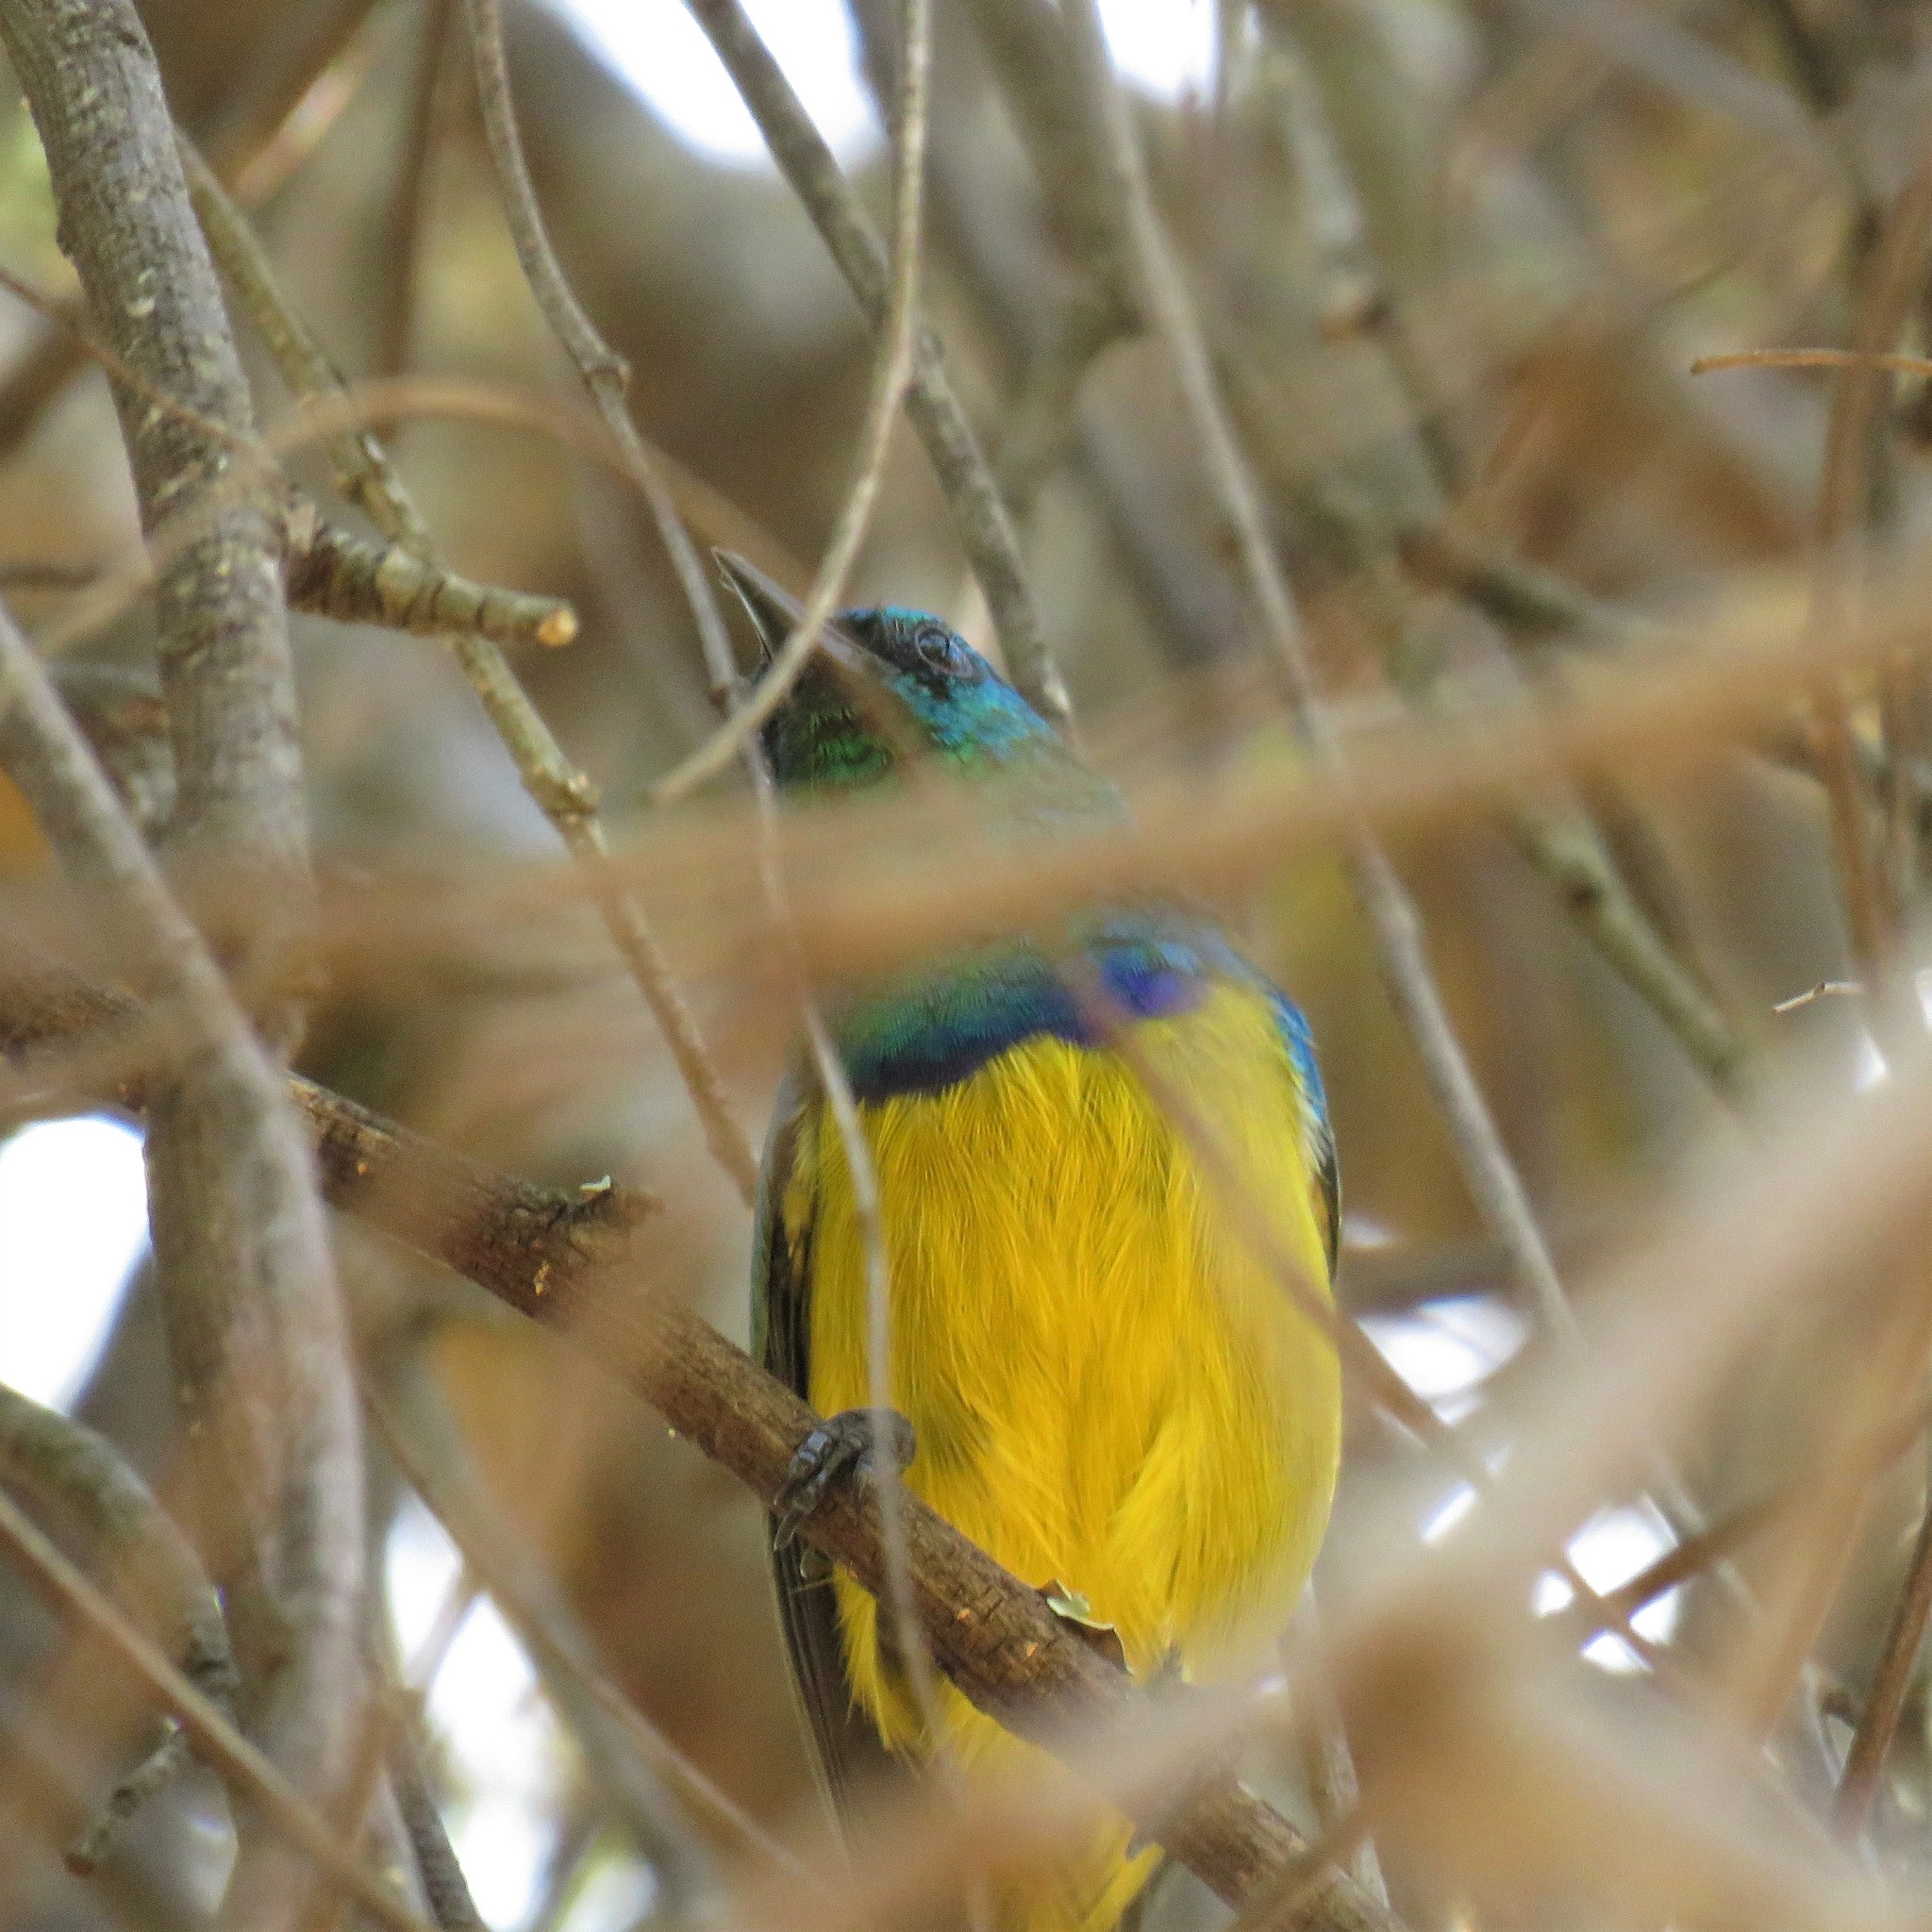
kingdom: Animalia
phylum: Chordata
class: Aves
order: Passeriformes
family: Nectariniidae
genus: Hedydipna
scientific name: Hedydipna collaris
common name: Collared sunbird
